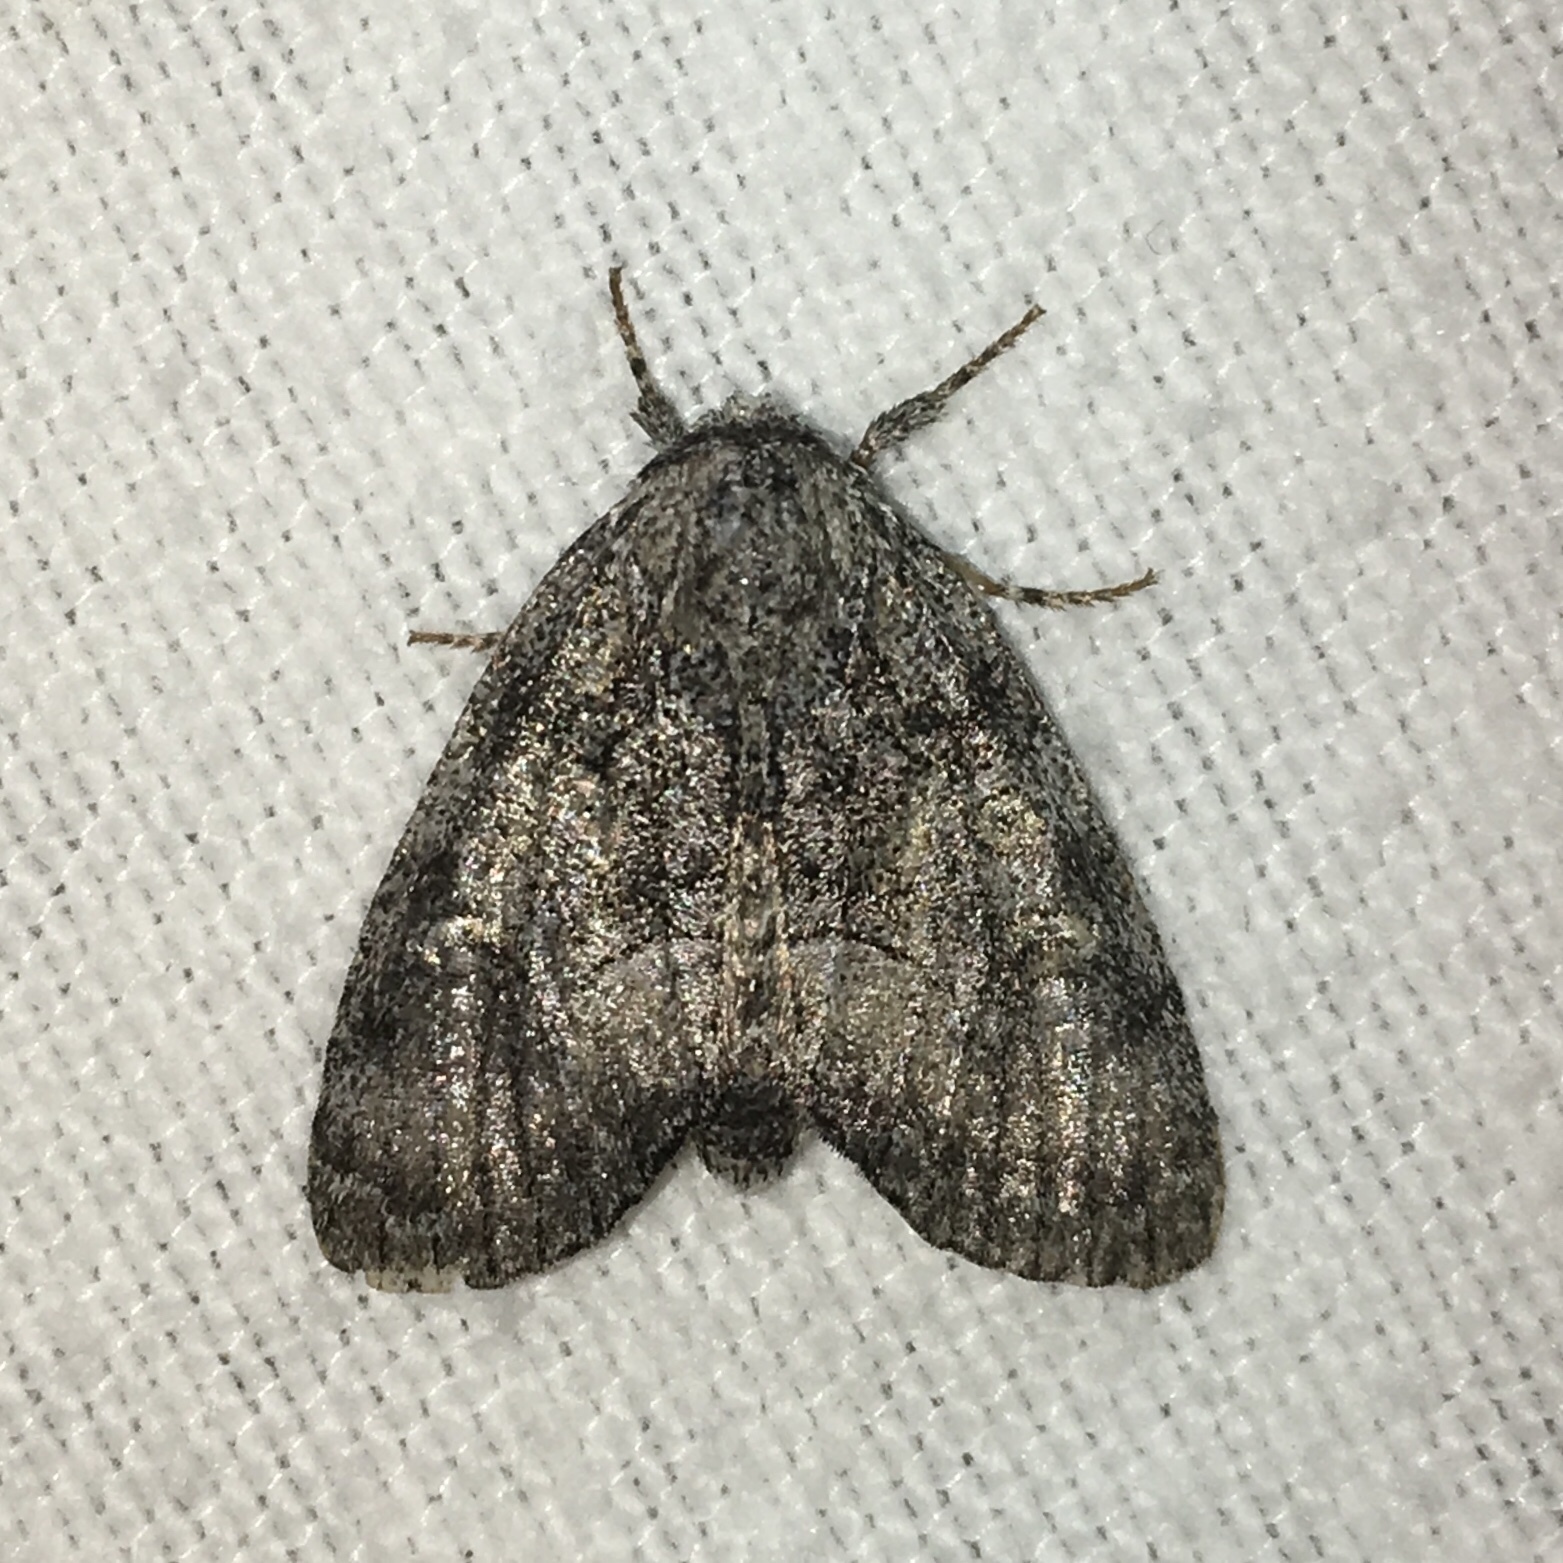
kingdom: Animalia
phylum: Arthropoda
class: Insecta
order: Lepidoptera
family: Noctuidae
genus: Raphia
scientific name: Raphia frater
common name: Brother
